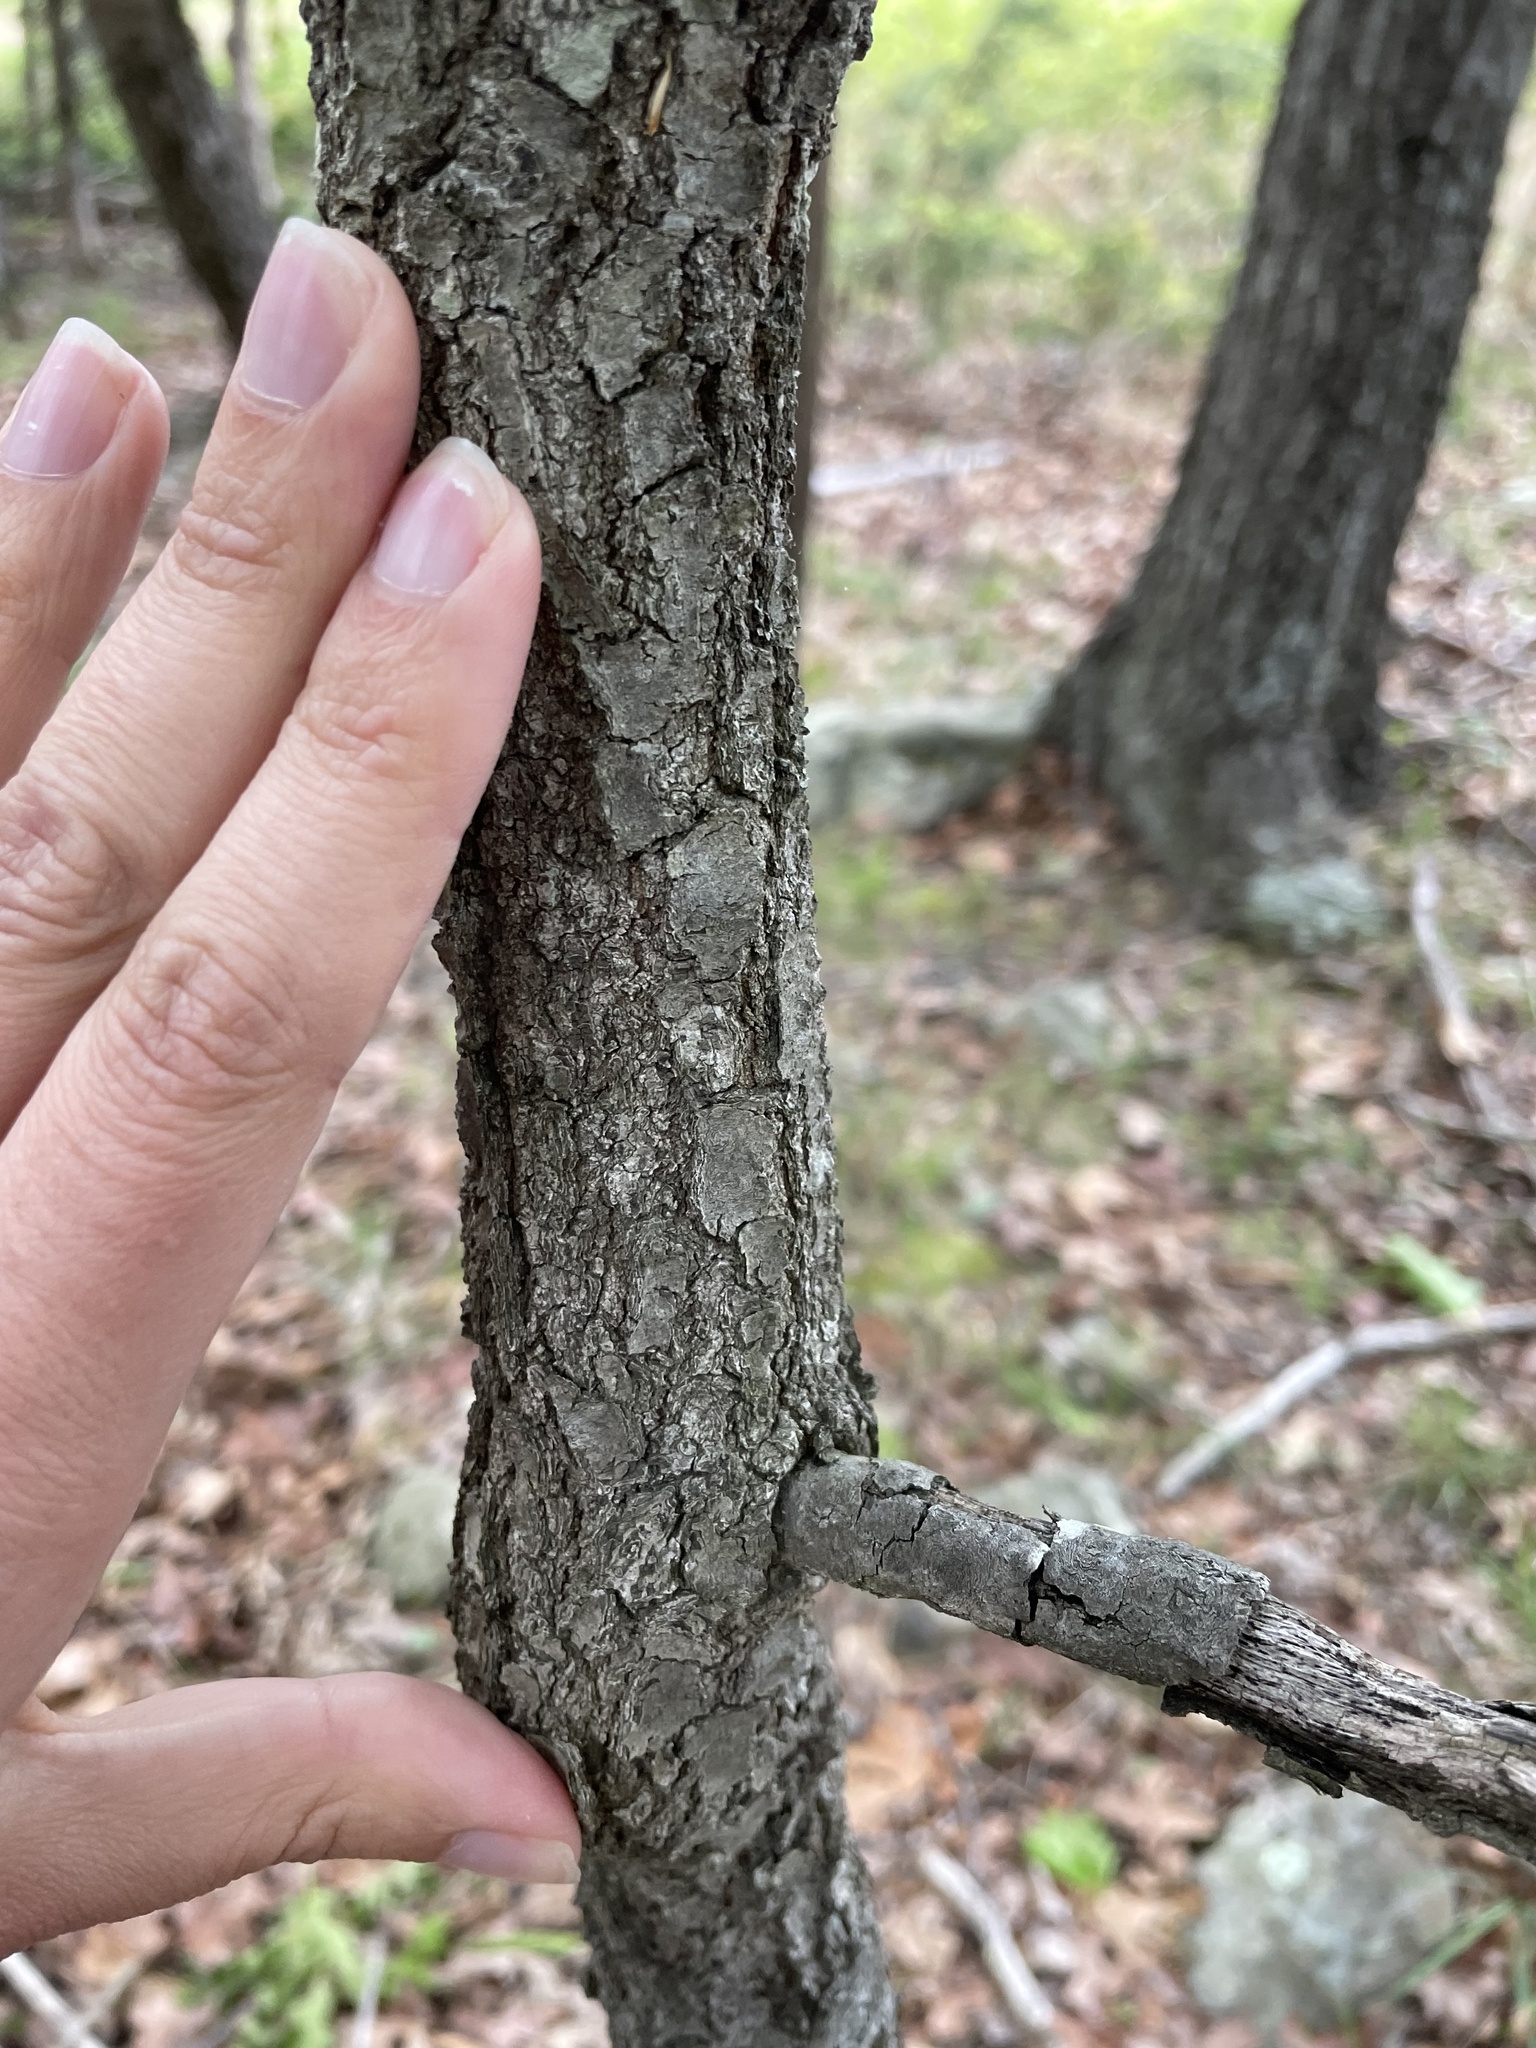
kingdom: Plantae
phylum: Tracheophyta
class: Magnoliopsida
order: Fagales
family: Fagaceae
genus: Quercus
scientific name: Quercus marilandica
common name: Blackjack oak
